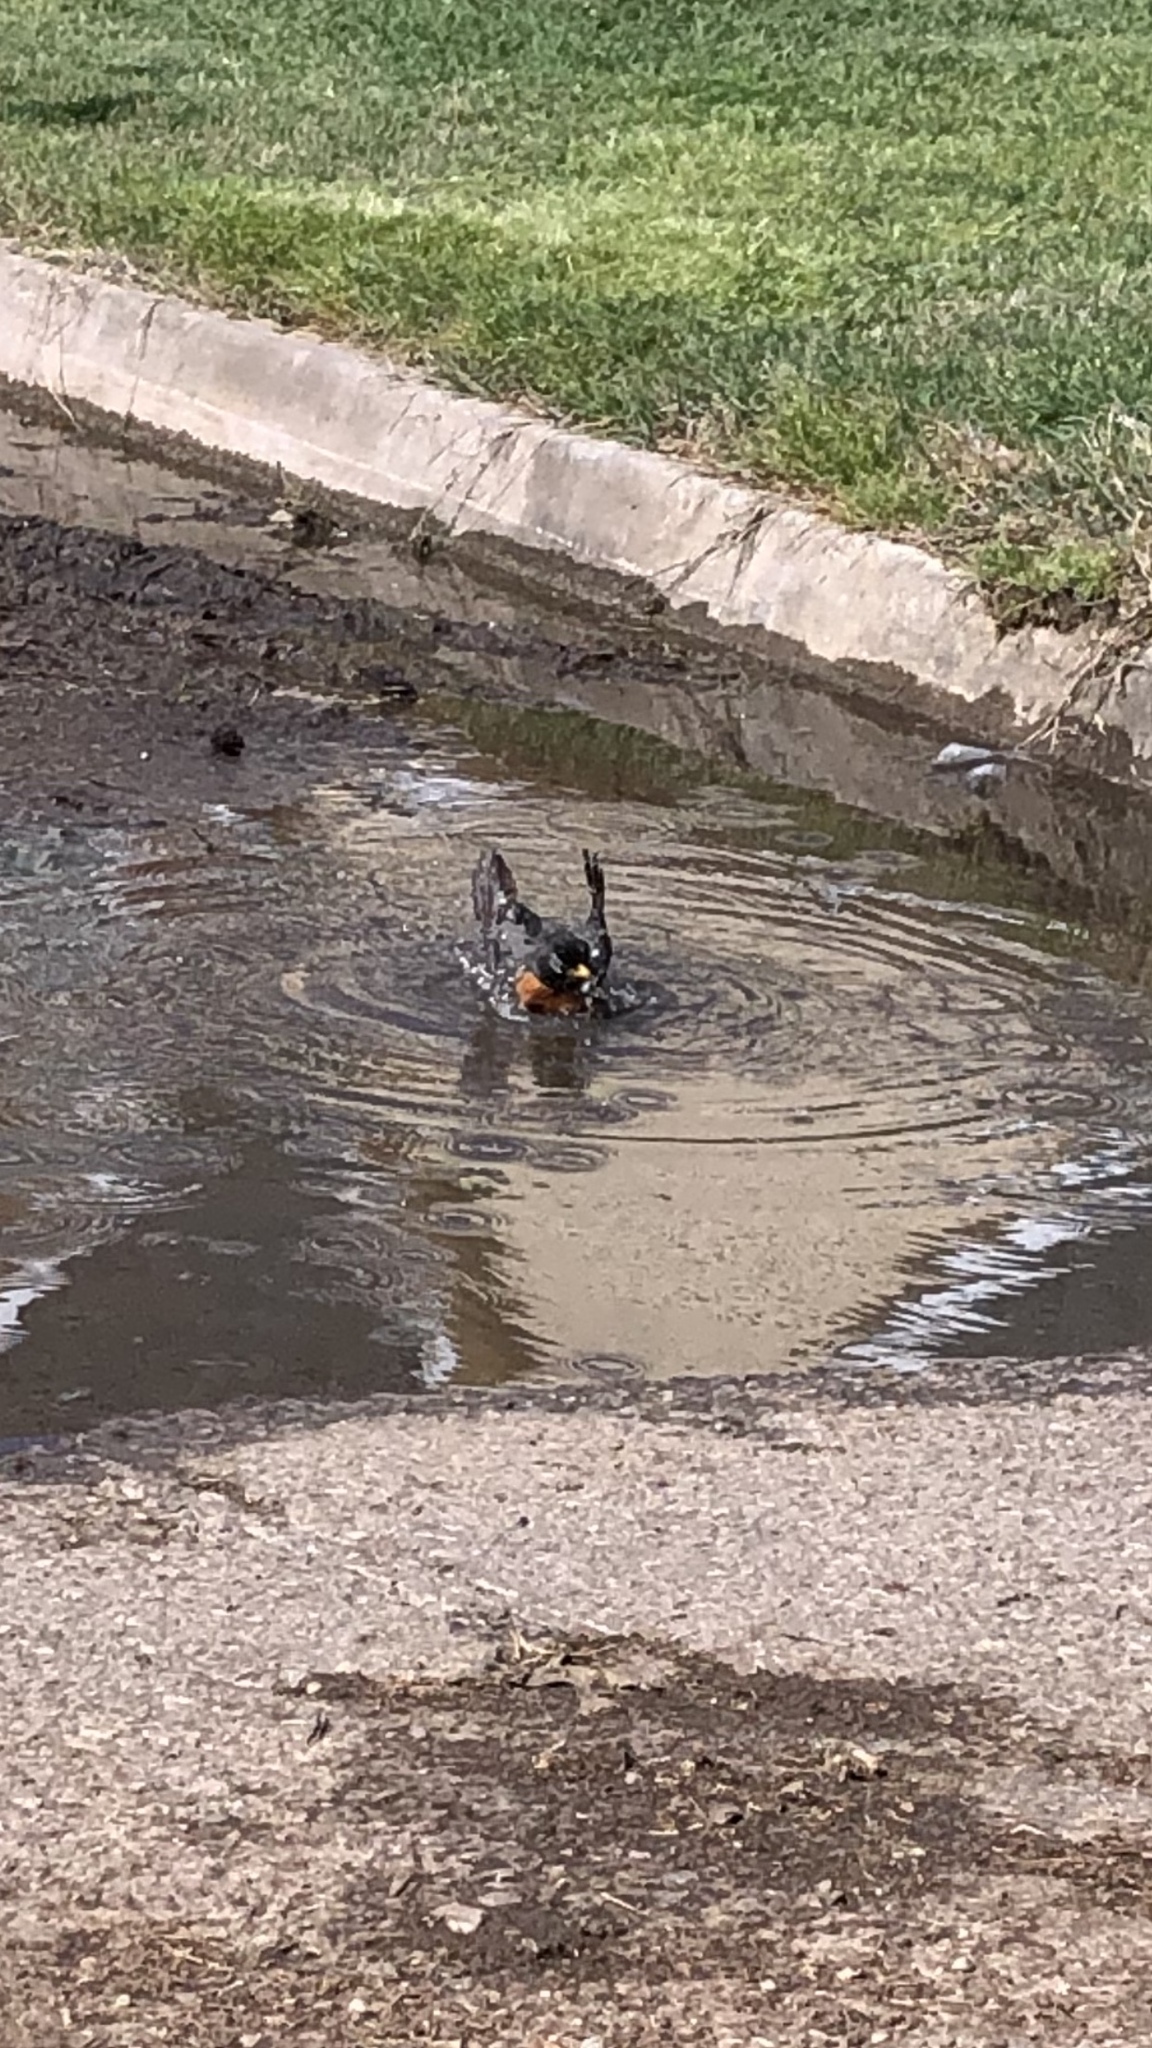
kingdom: Animalia
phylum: Chordata
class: Aves
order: Passeriformes
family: Turdidae
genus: Turdus
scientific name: Turdus migratorius
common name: American robin
